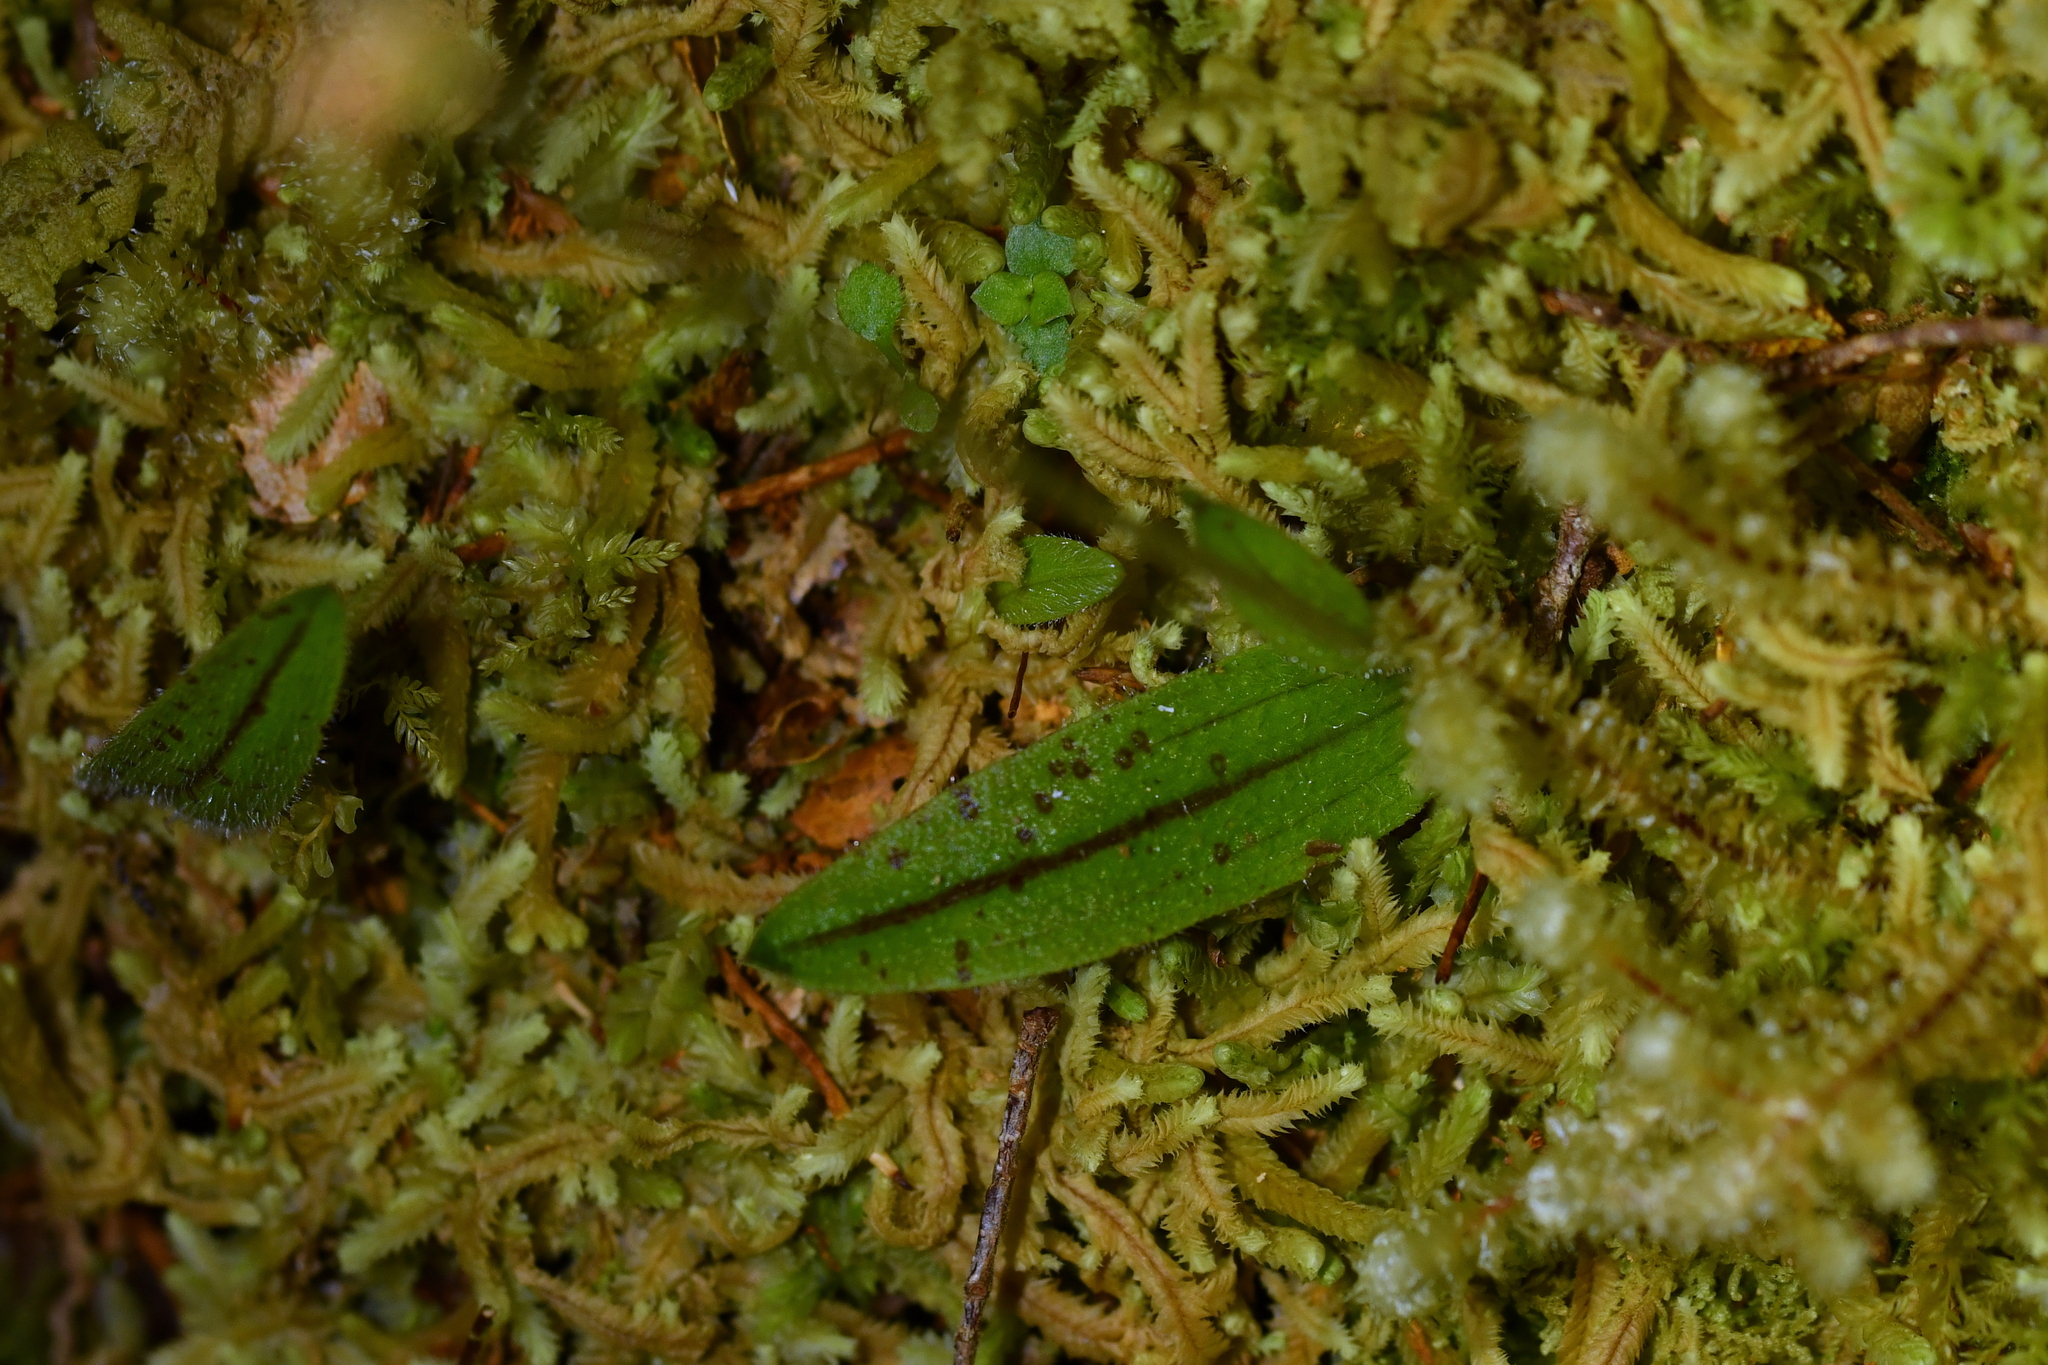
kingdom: Plantae
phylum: Tracheophyta
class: Liliopsida
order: Asparagales
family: Orchidaceae
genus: Aporostylis
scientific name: Aporostylis bifolia
